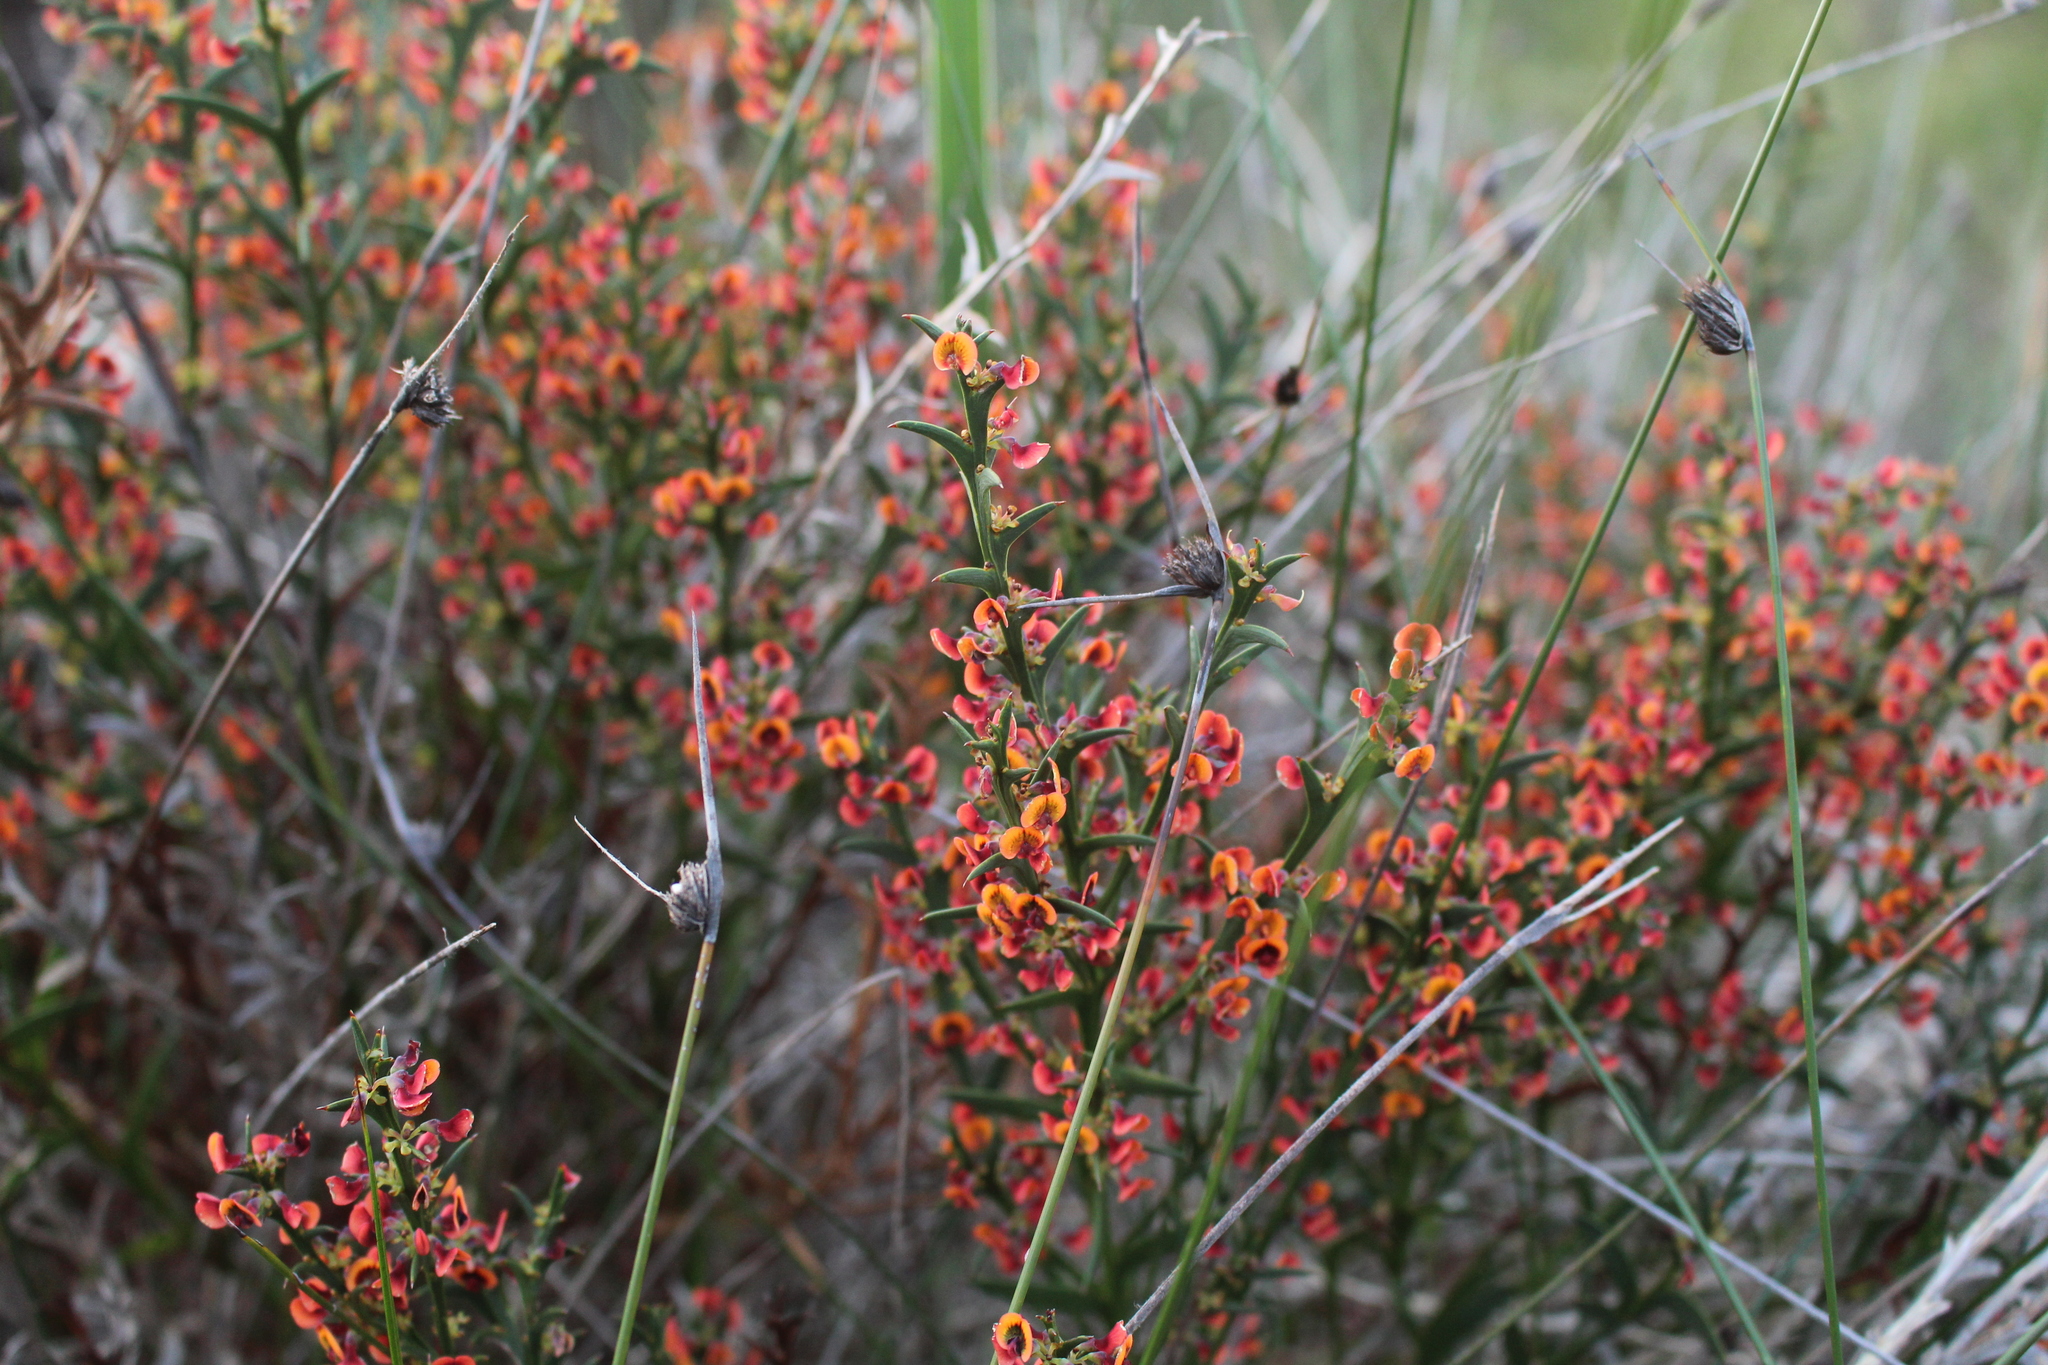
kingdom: Plantae
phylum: Tracheophyta
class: Magnoliopsida
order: Fabales
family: Fabaceae
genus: Daviesia
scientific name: Daviesia decurrens
